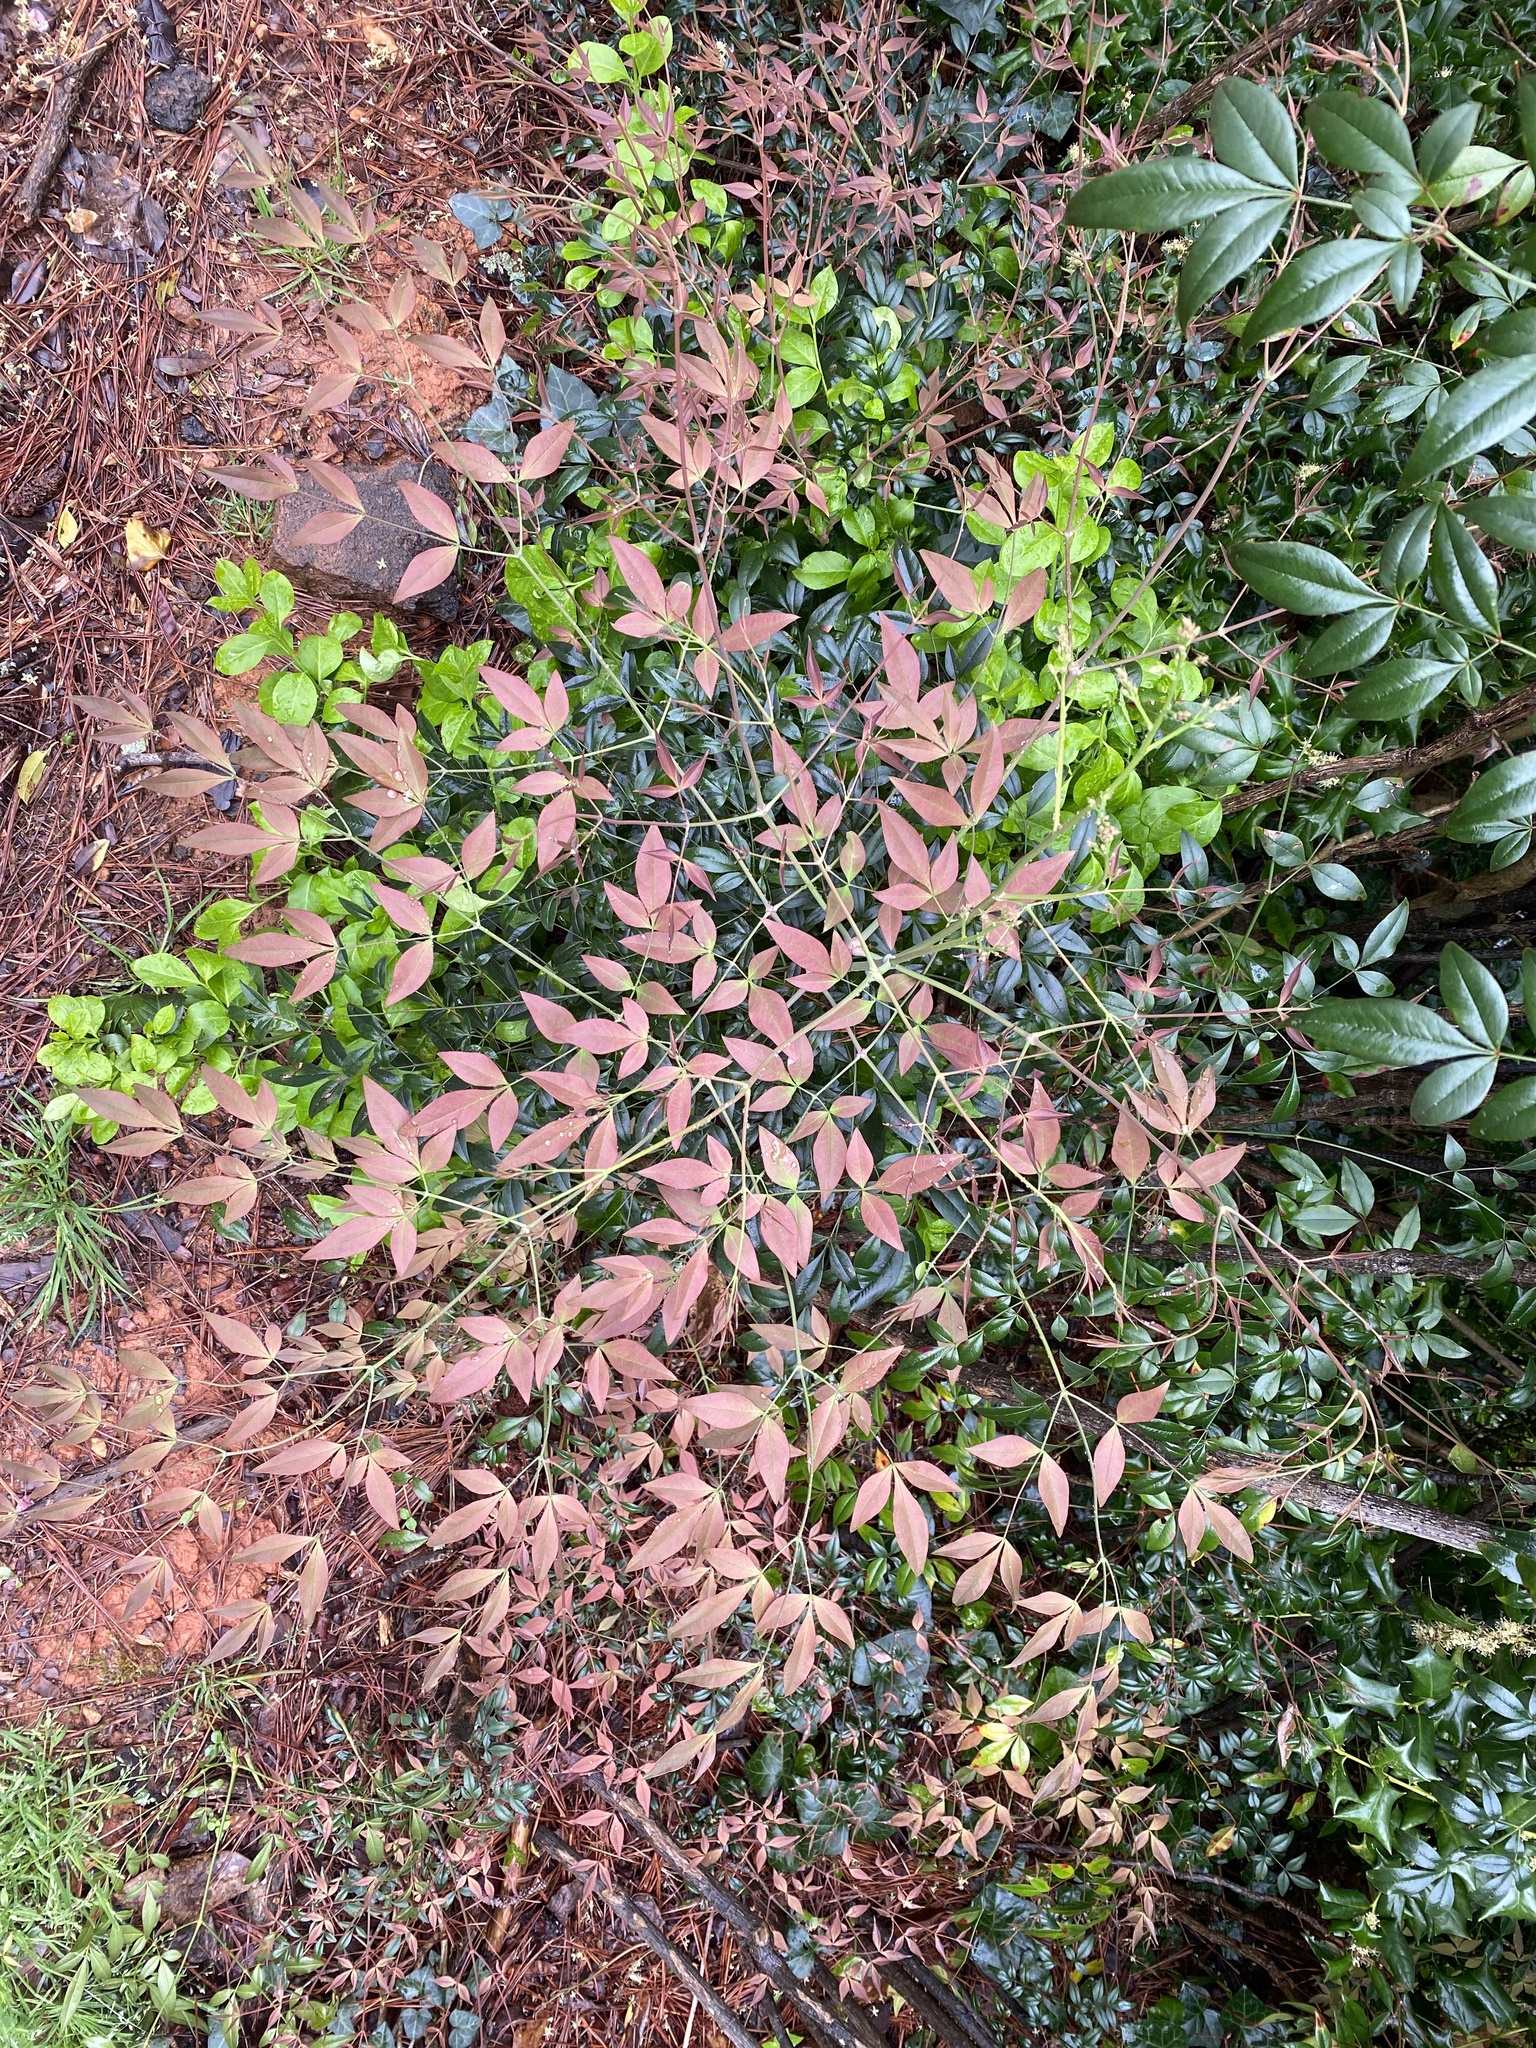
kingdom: Plantae
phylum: Tracheophyta
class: Magnoliopsida
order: Ranunculales
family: Berberidaceae
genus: Nandina
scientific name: Nandina domestica
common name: Sacred bamboo
